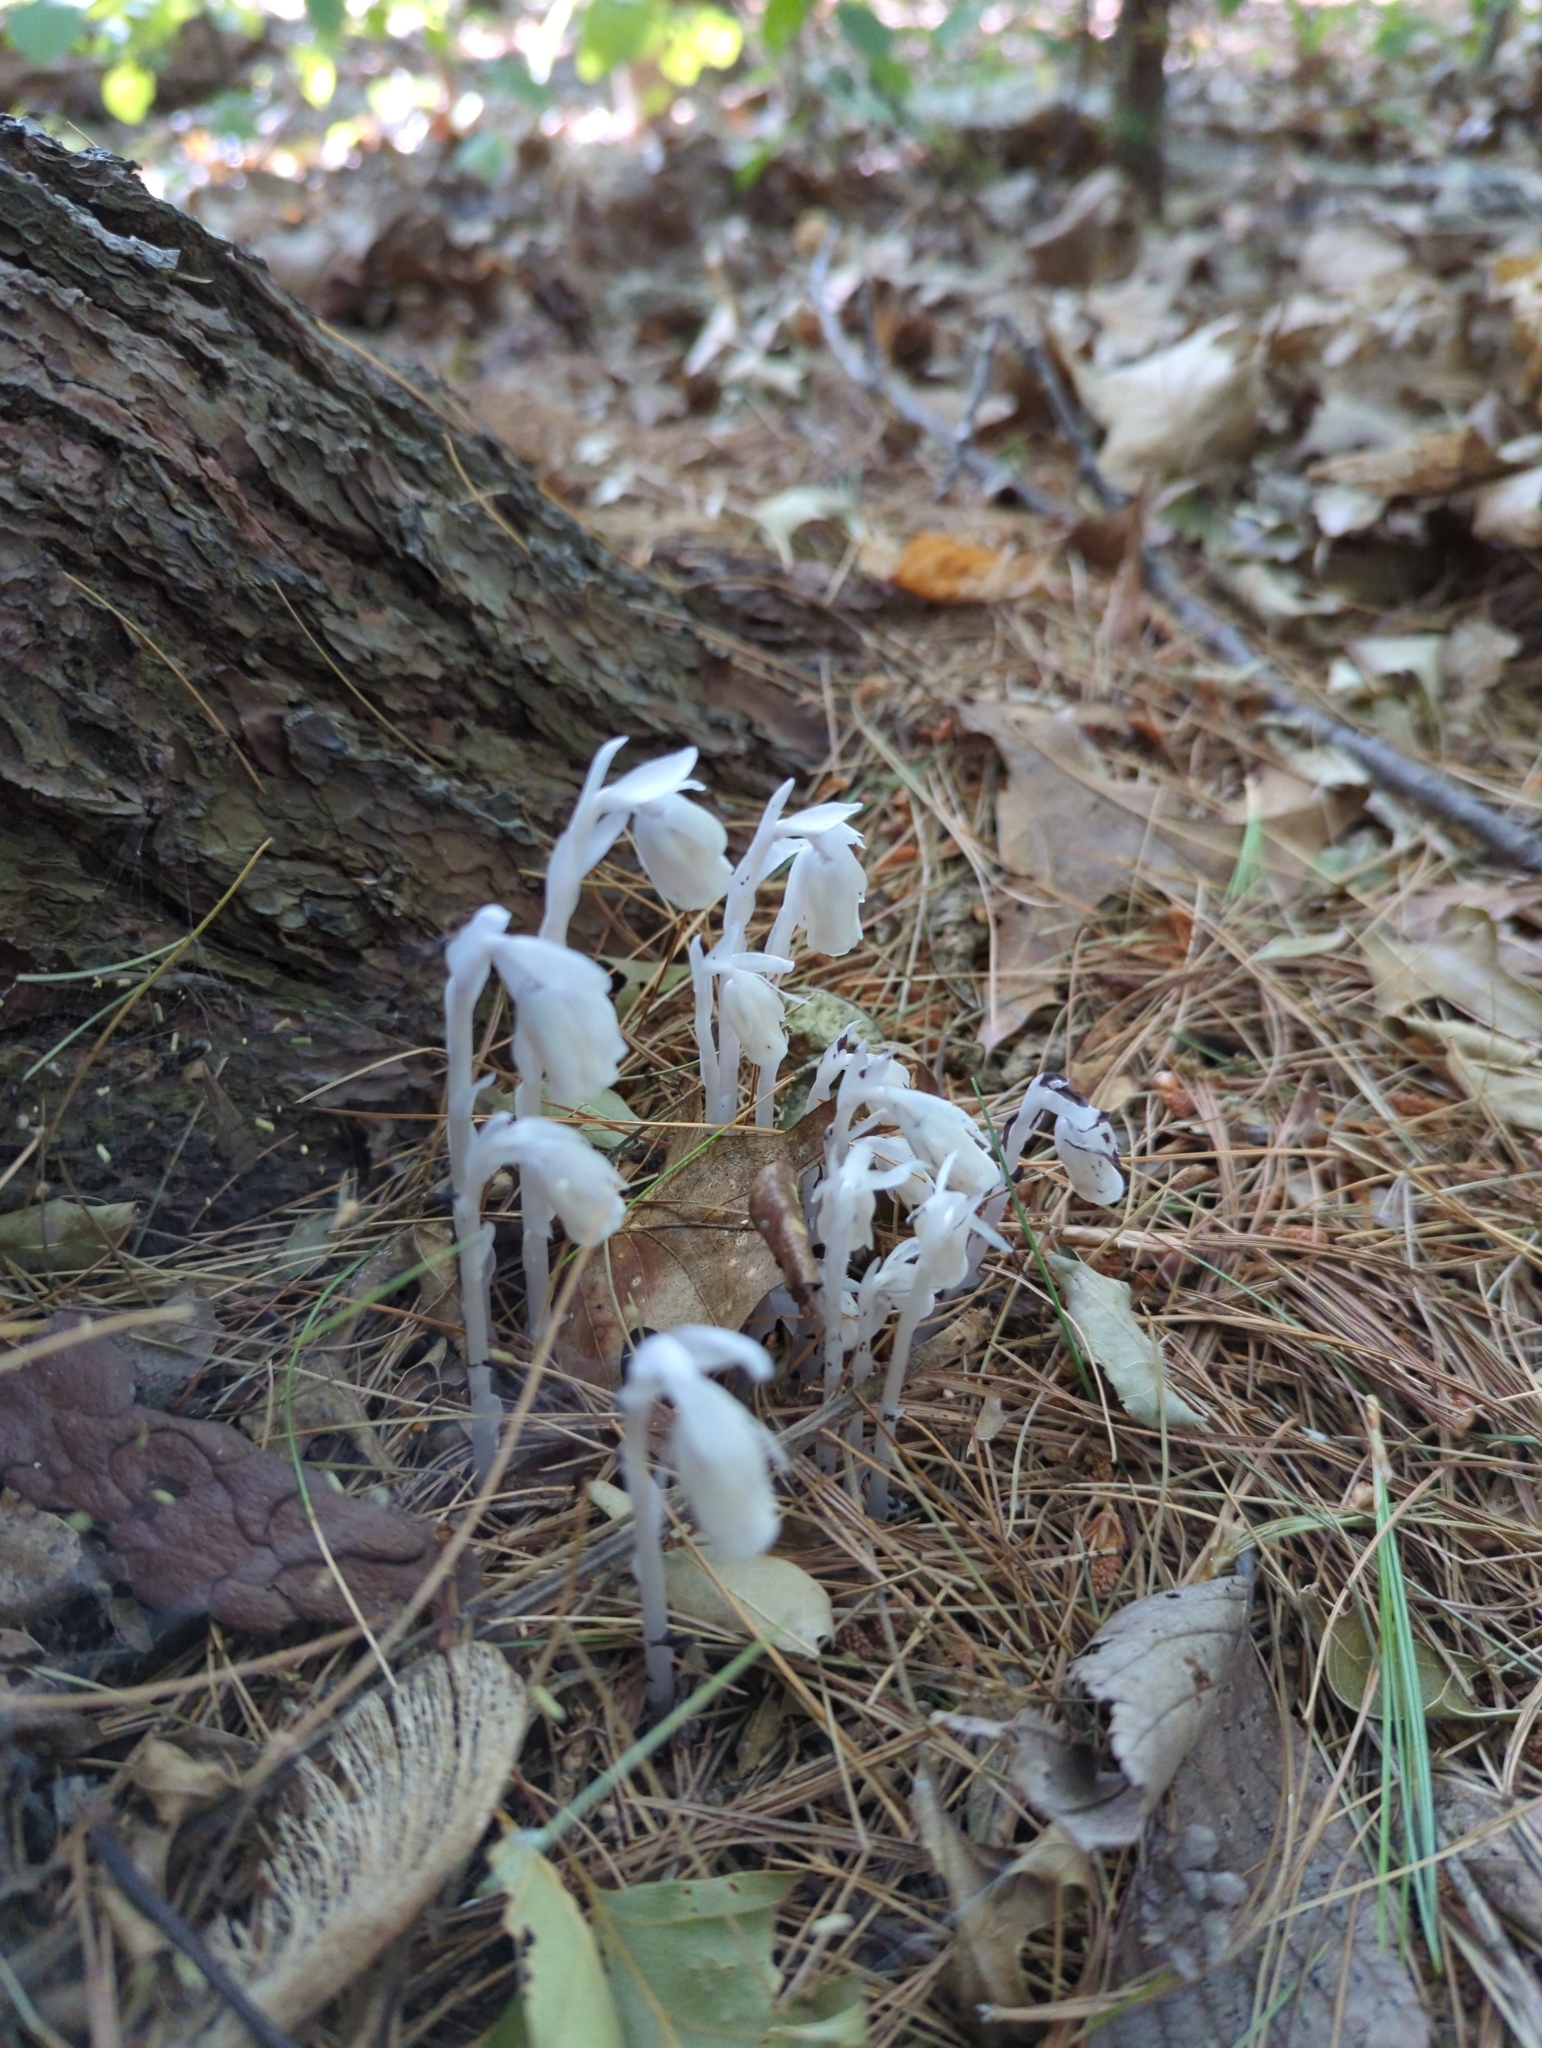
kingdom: Plantae
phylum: Tracheophyta
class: Magnoliopsida
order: Ericales
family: Ericaceae
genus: Monotropa
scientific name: Monotropa uniflora
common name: Convulsion root
